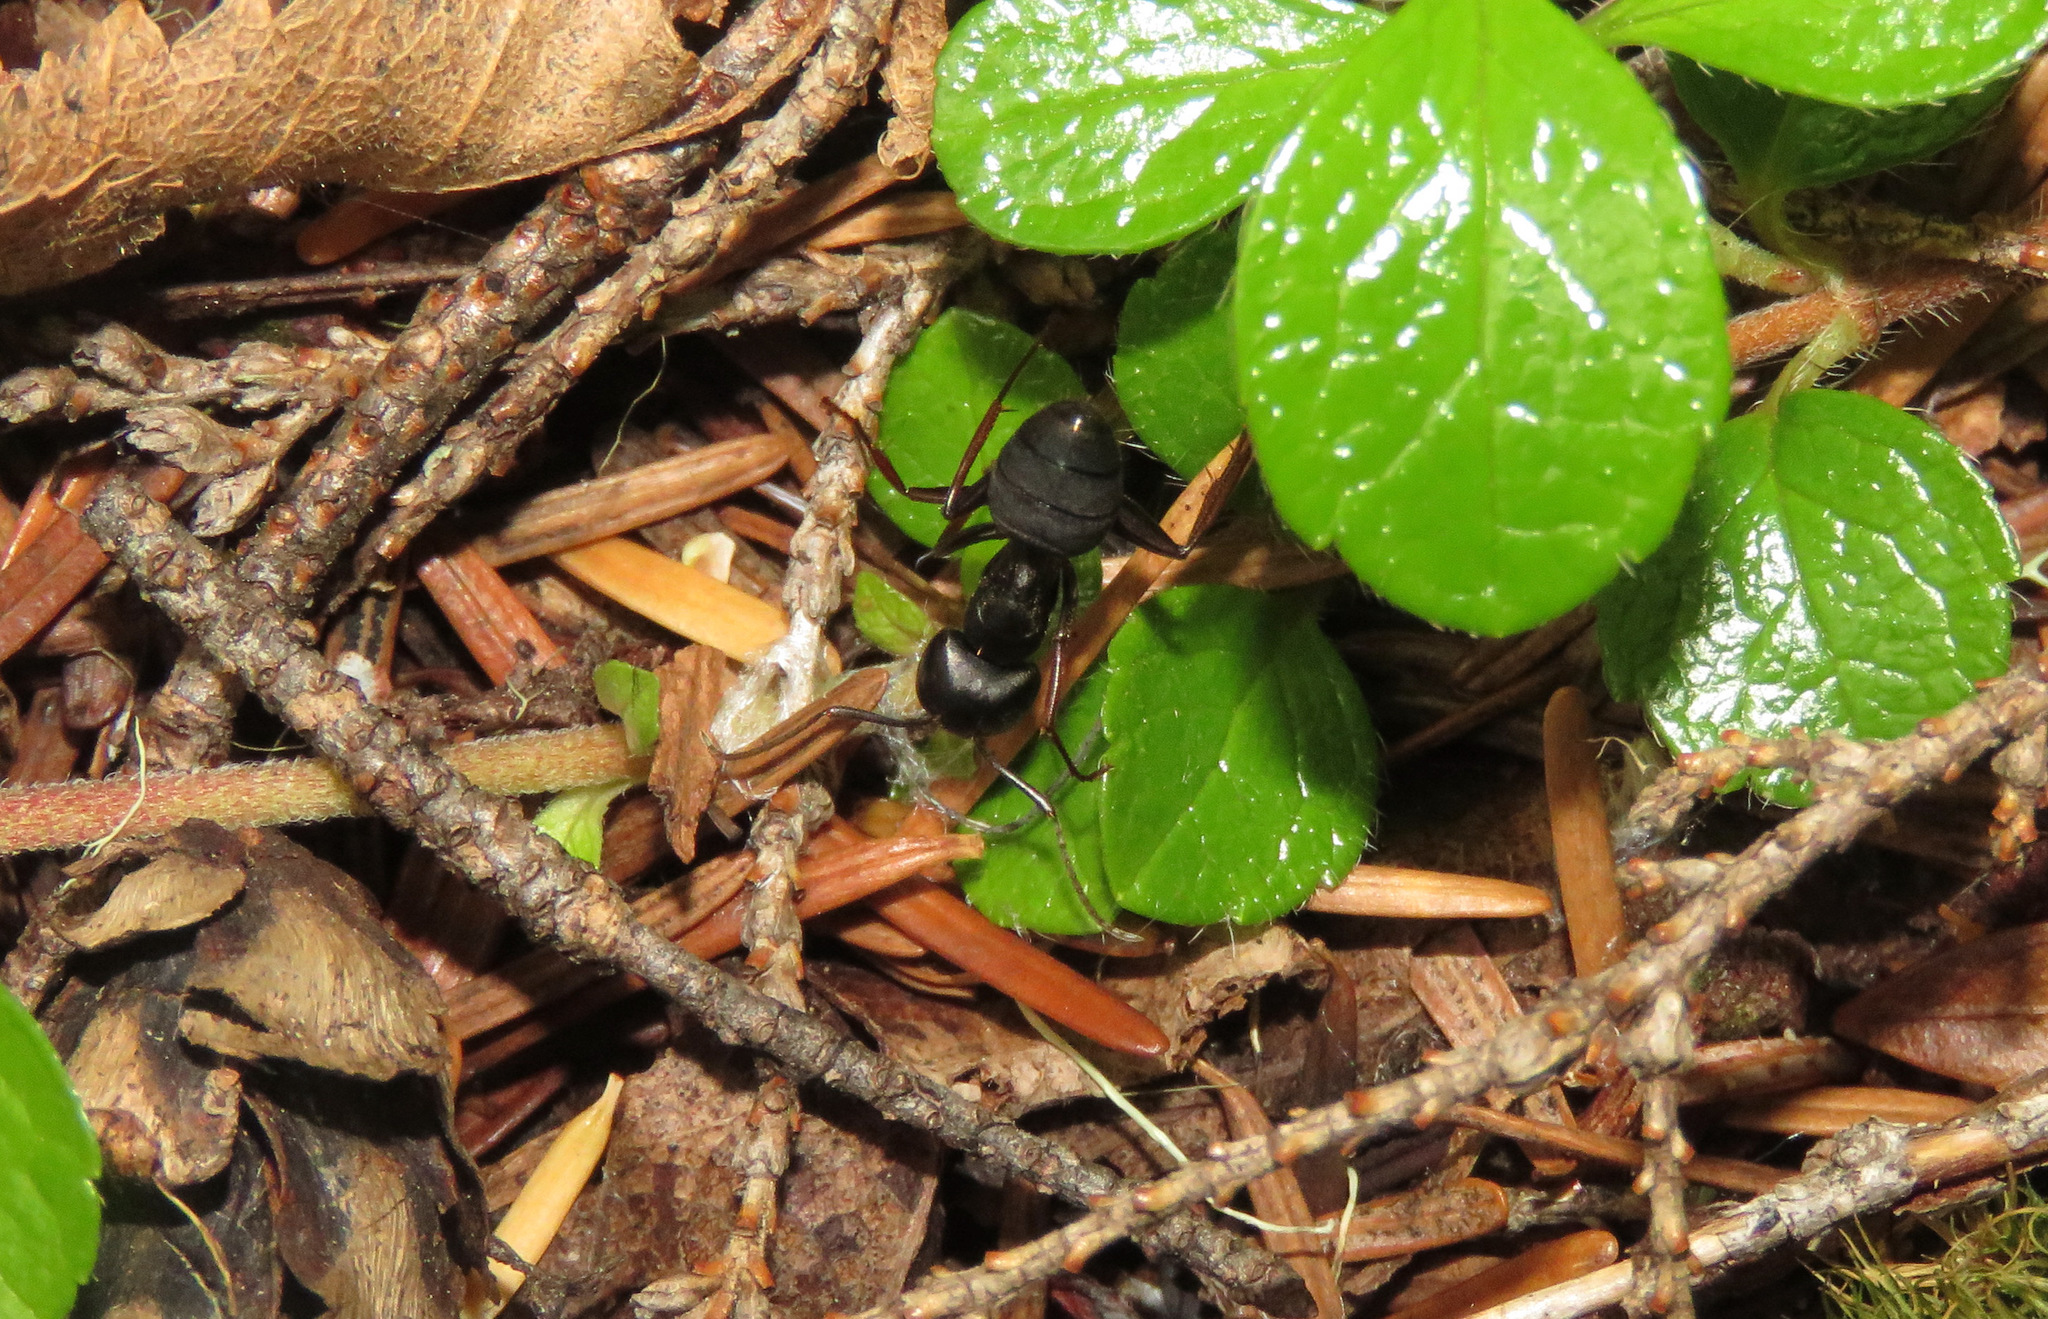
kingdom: Animalia
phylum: Arthropoda
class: Insecta
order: Hymenoptera
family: Formicidae
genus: Camponotus
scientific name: Camponotus modoc
